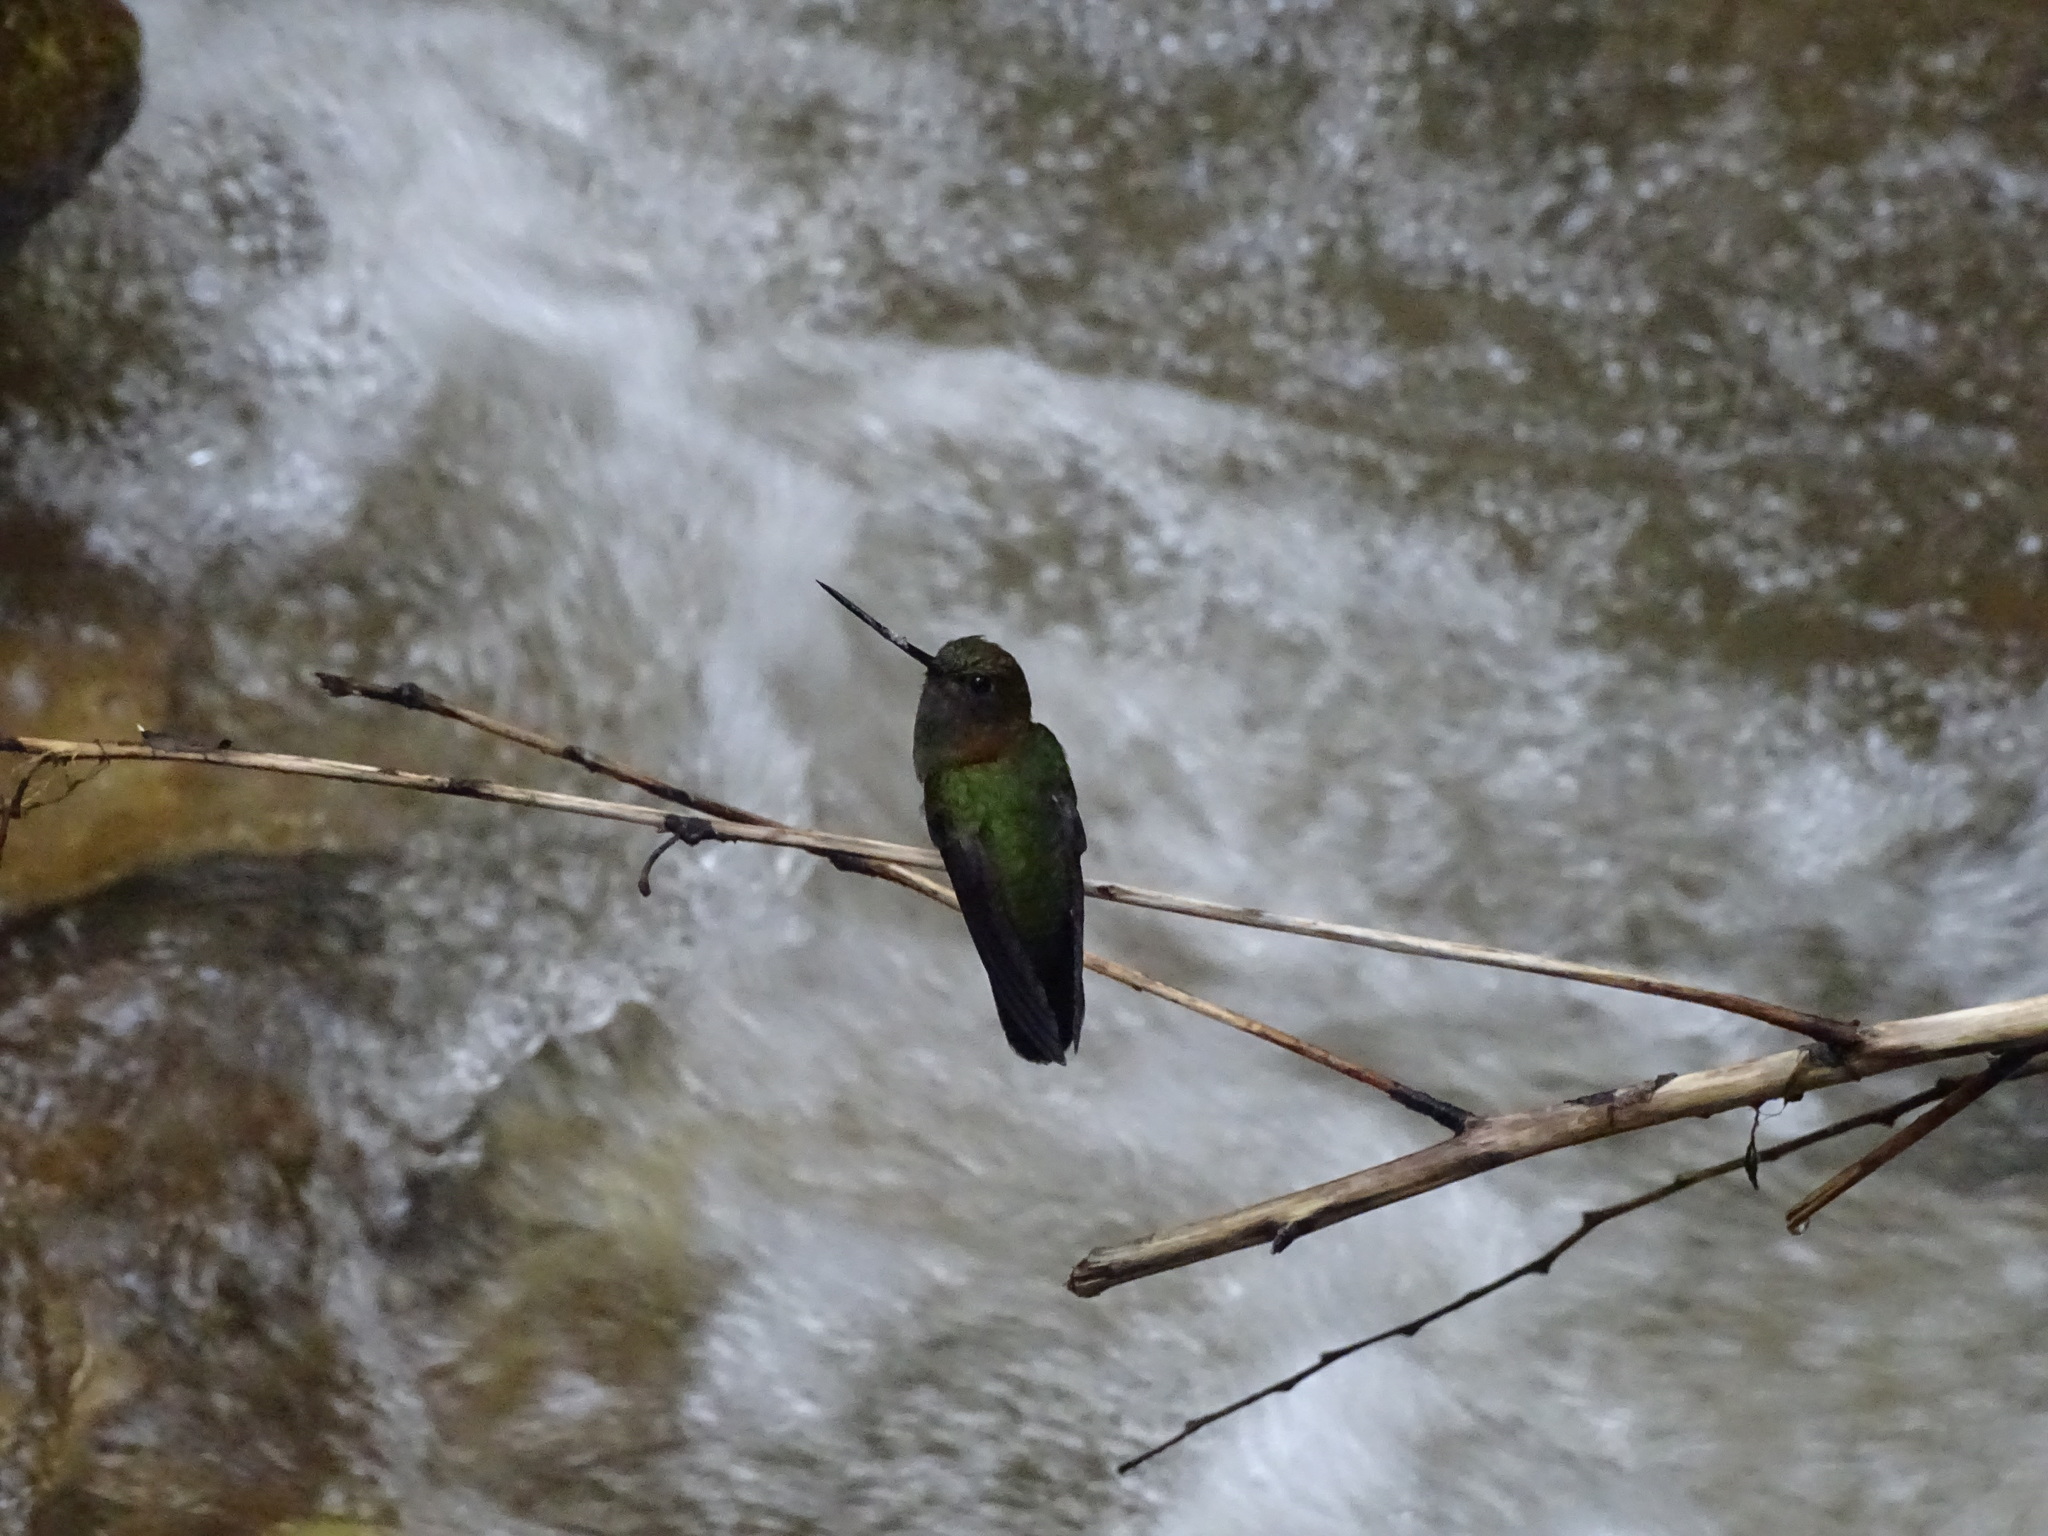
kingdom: Animalia
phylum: Chordata
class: Aves
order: Apodiformes
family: Trochilidae
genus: Doryfera
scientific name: Doryfera ludovicae
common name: Green-fronted lancebill
